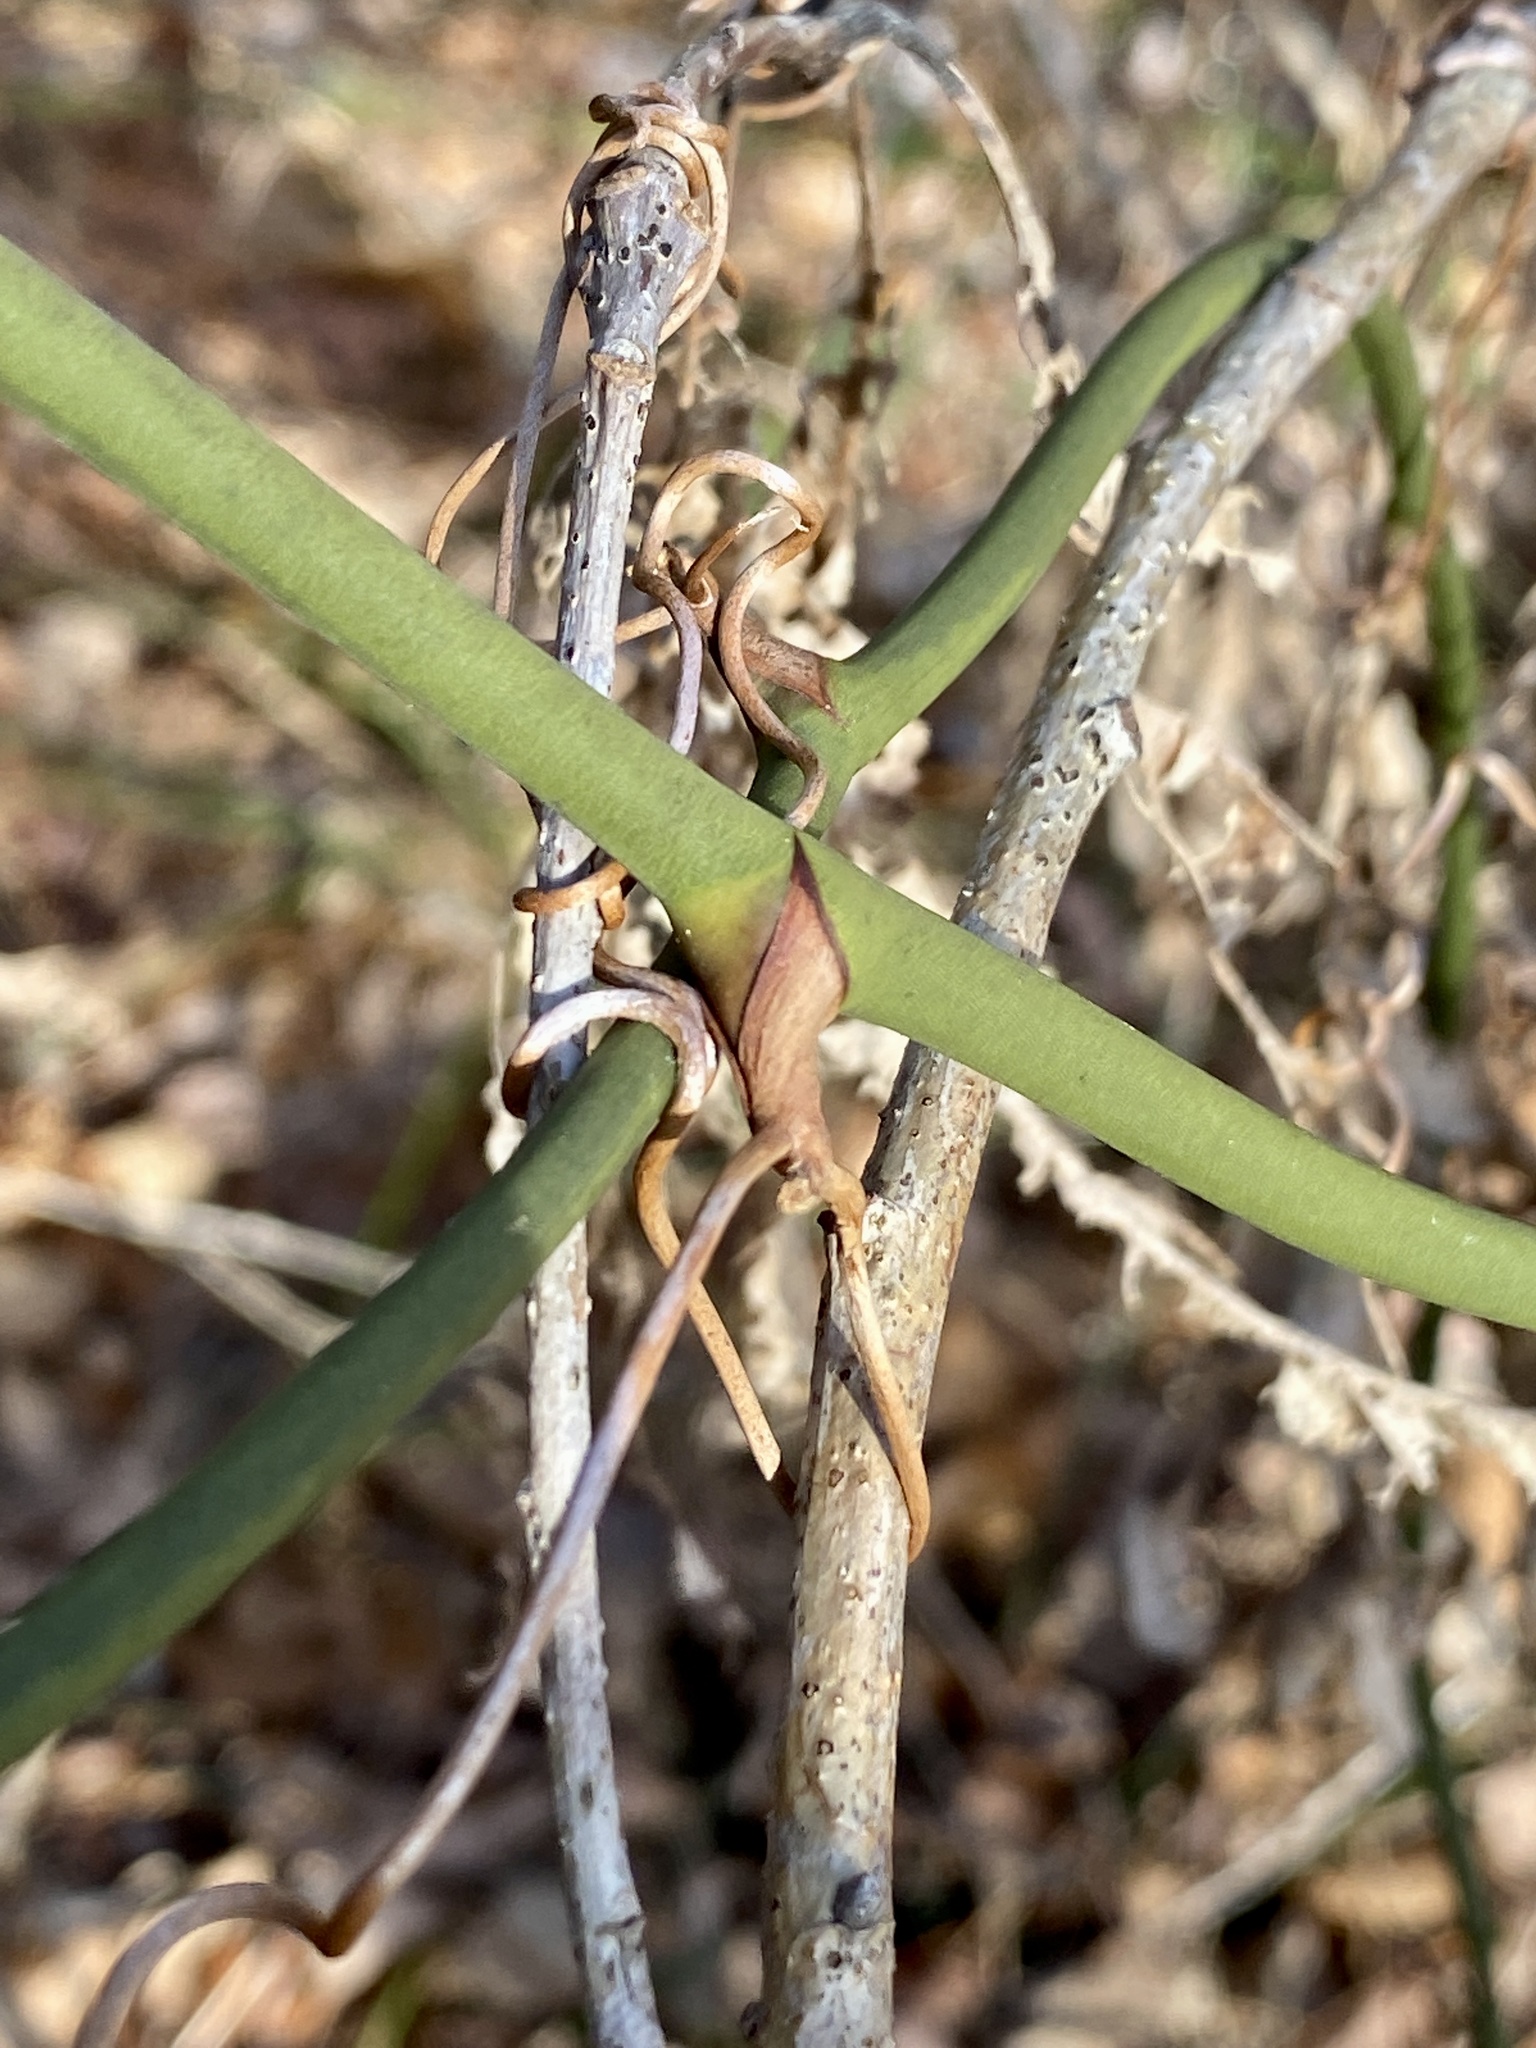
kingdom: Plantae
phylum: Tracheophyta
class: Liliopsida
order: Liliales
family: Smilacaceae
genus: Smilax
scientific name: Smilax rotundifolia
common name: Bullbriar
